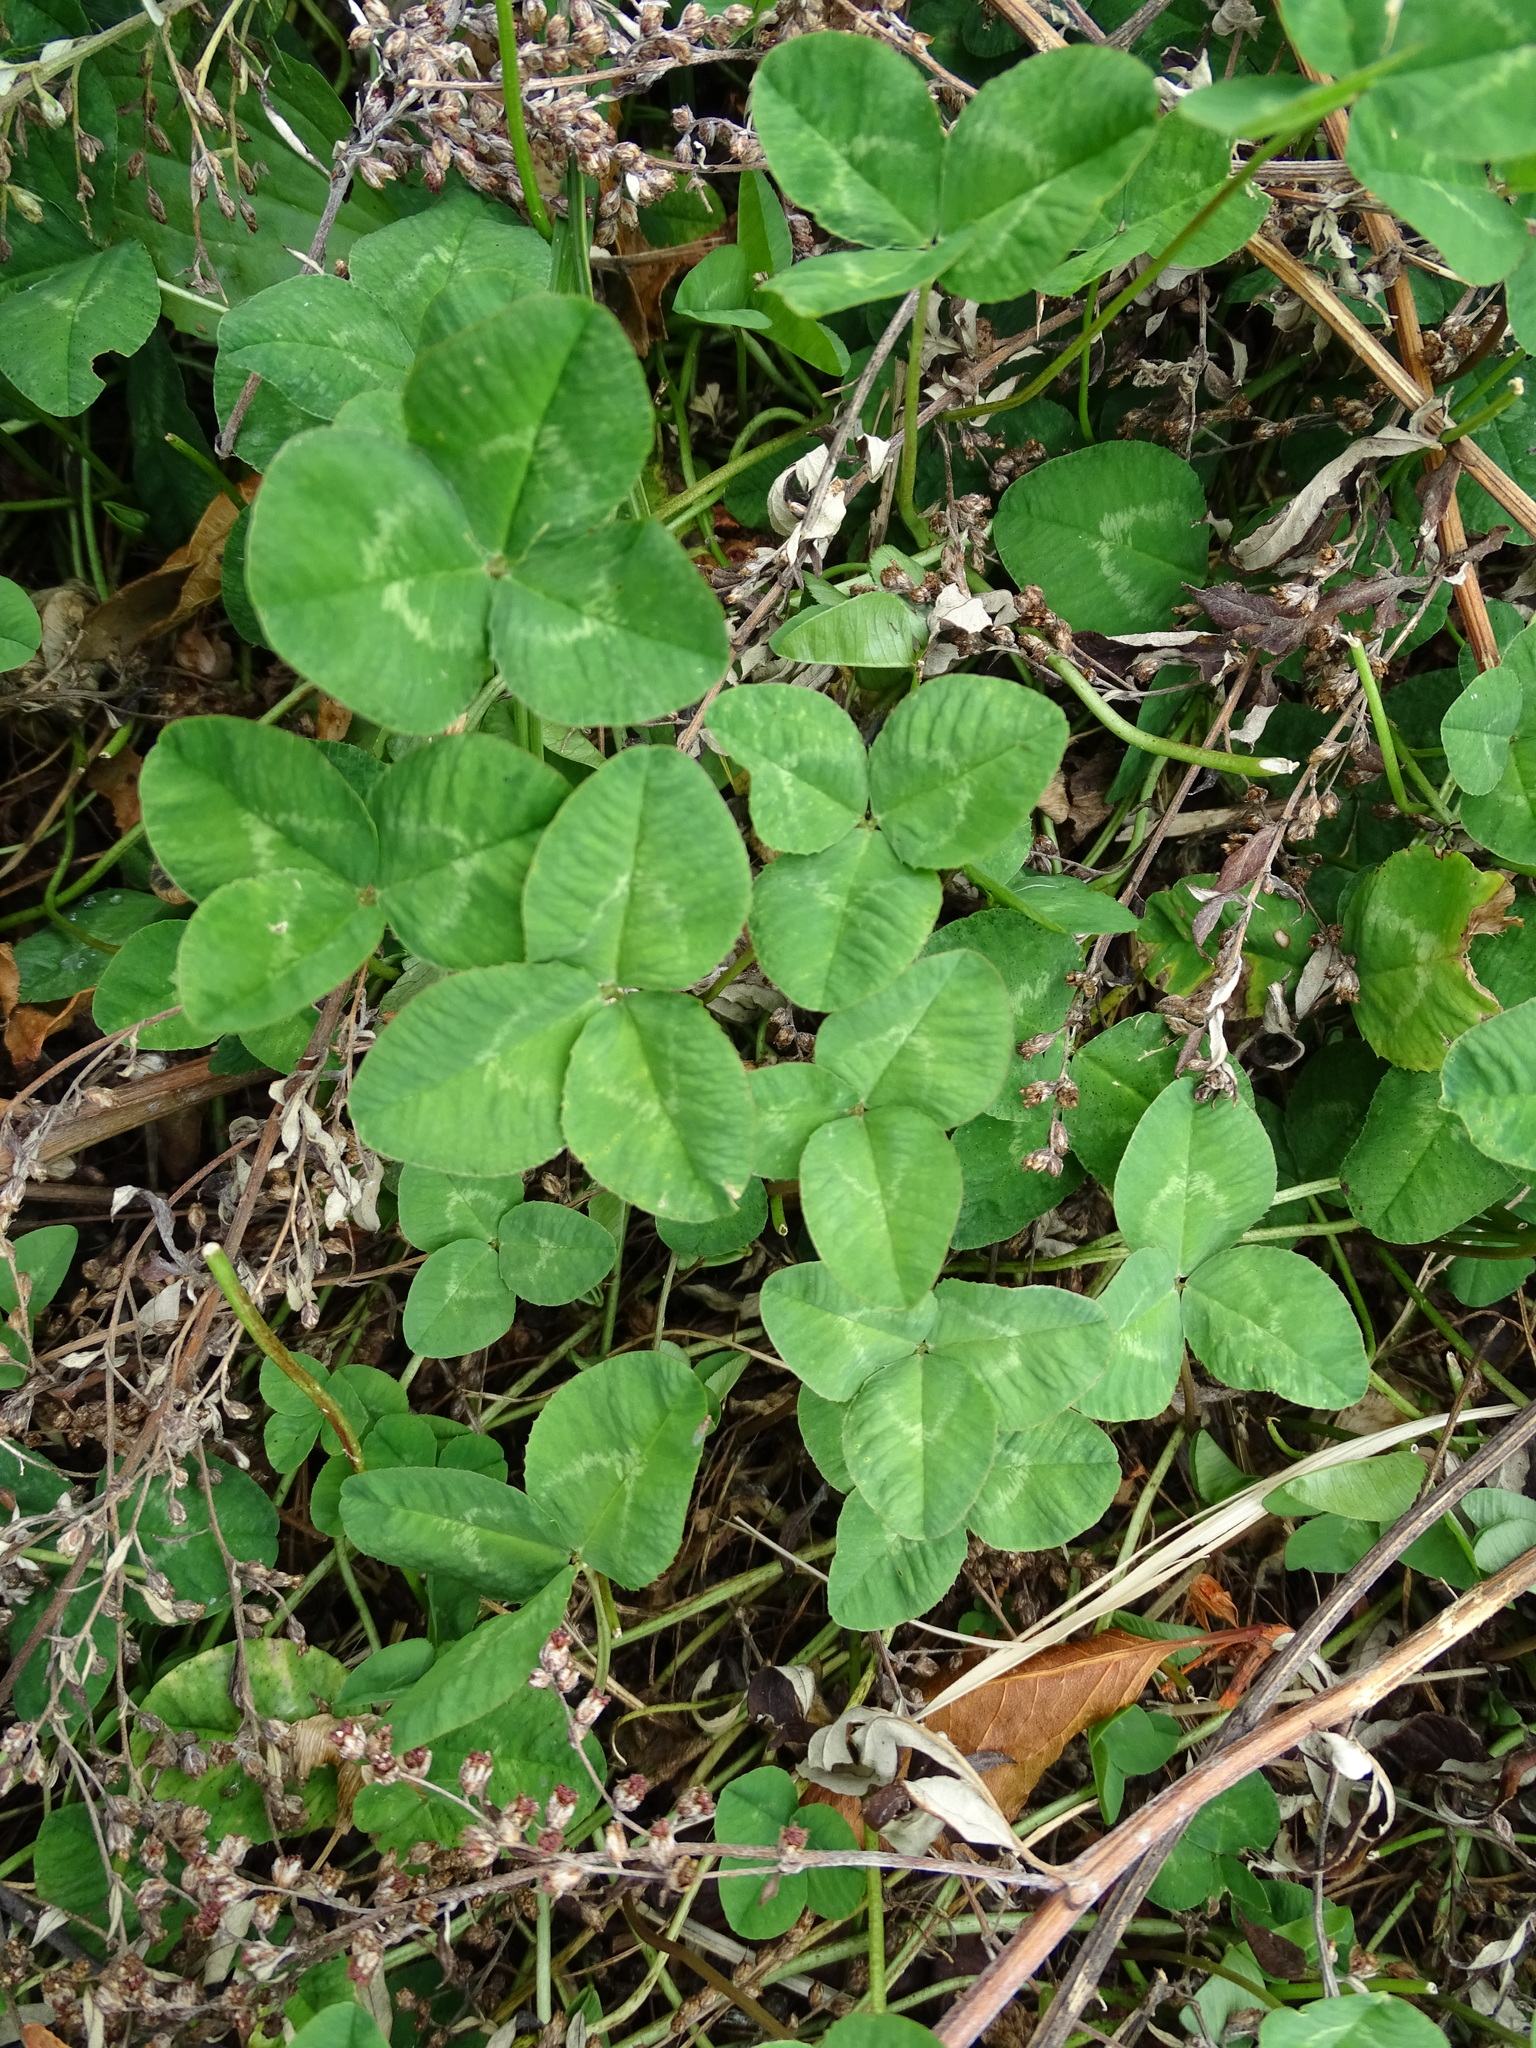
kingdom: Plantae
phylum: Tracheophyta
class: Magnoliopsida
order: Fabales
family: Fabaceae
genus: Trifolium
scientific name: Trifolium repens
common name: White clover
